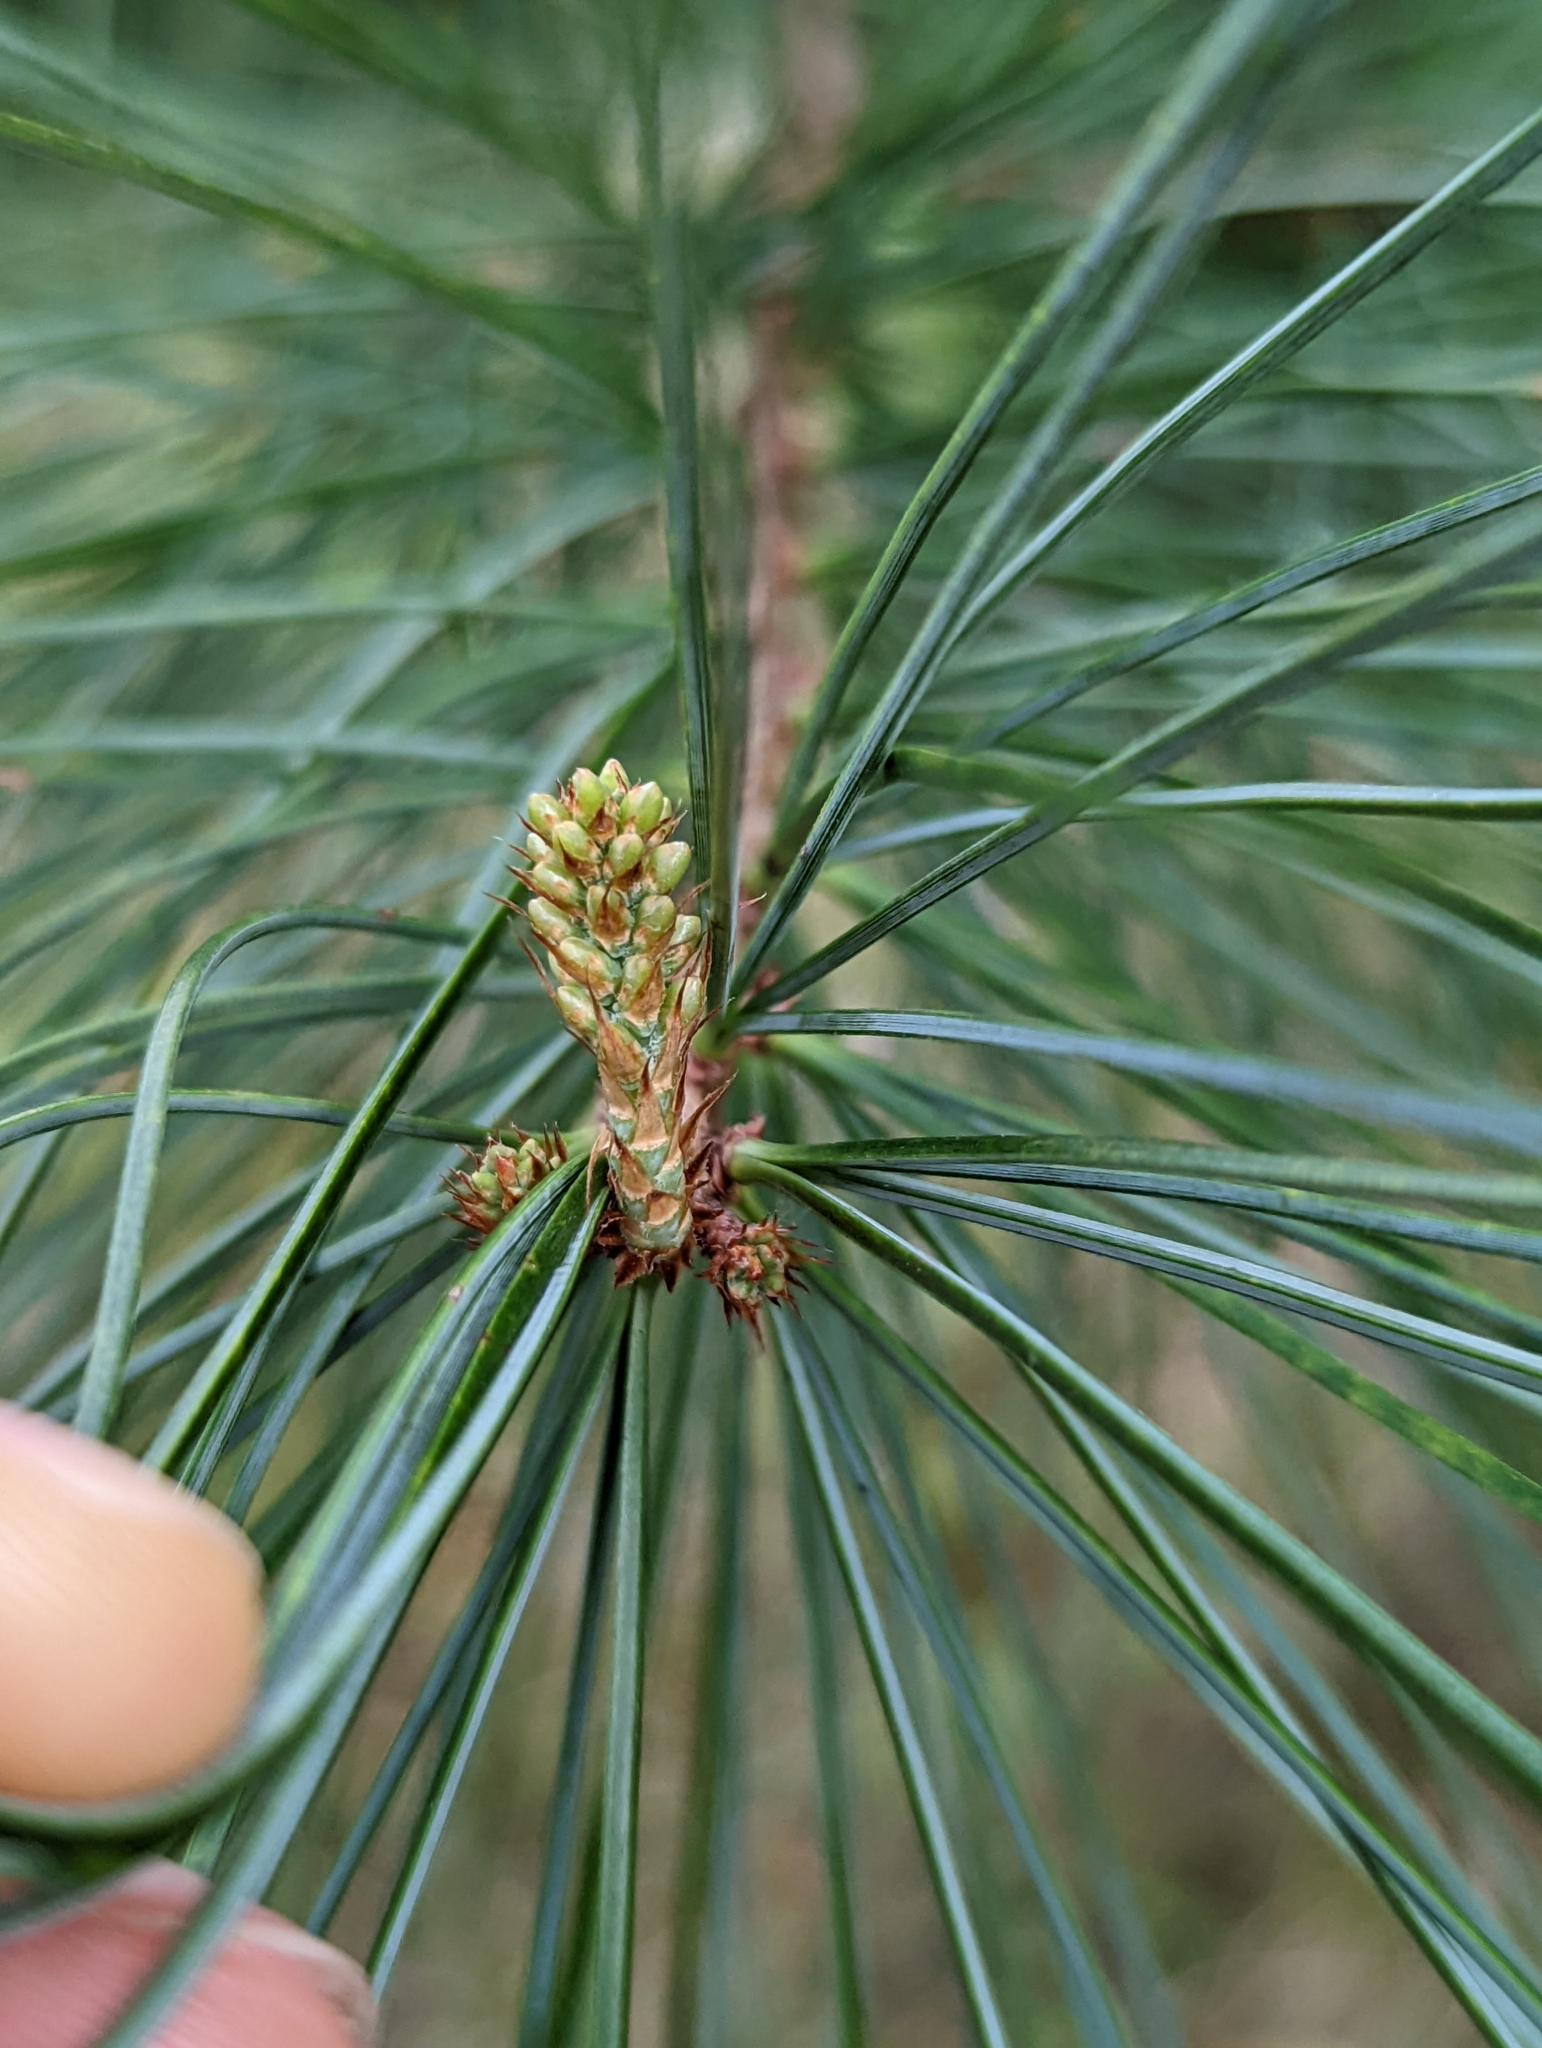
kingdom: Plantae
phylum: Tracheophyta
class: Pinopsida
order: Pinales
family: Pinaceae
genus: Pinus
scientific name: Pinus morrisonicola
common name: Taiwan white pine
